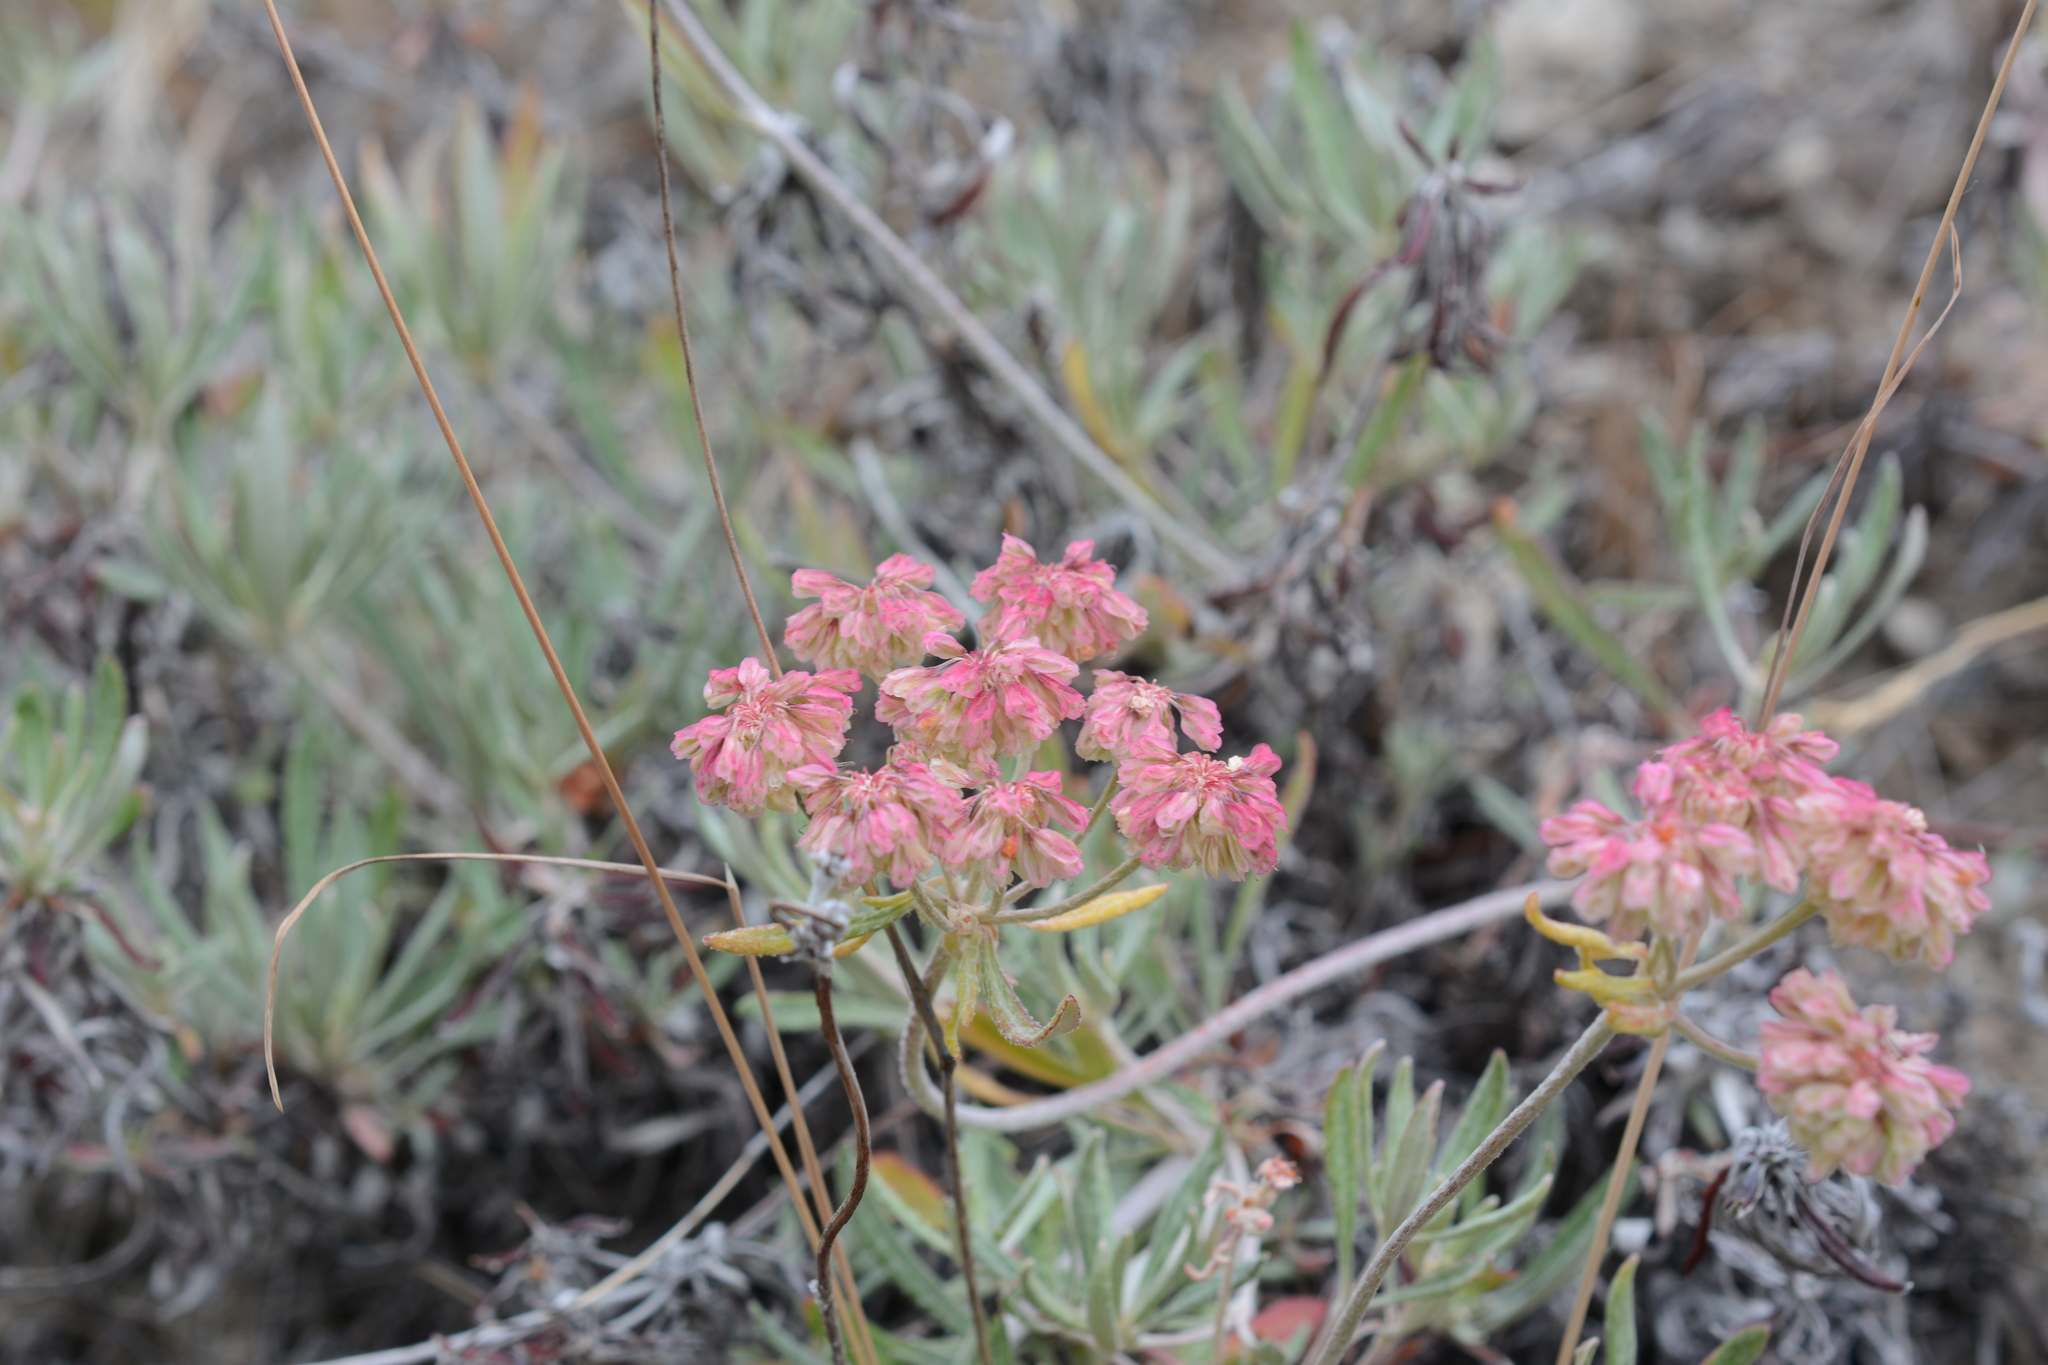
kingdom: Plantae
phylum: Tracheophyta
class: Magnoliopsida
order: Caryophyllales
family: Polygonaceae
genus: Eriogonum
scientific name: Eriogonum heracleoides
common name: Wyeth's buckwheat
